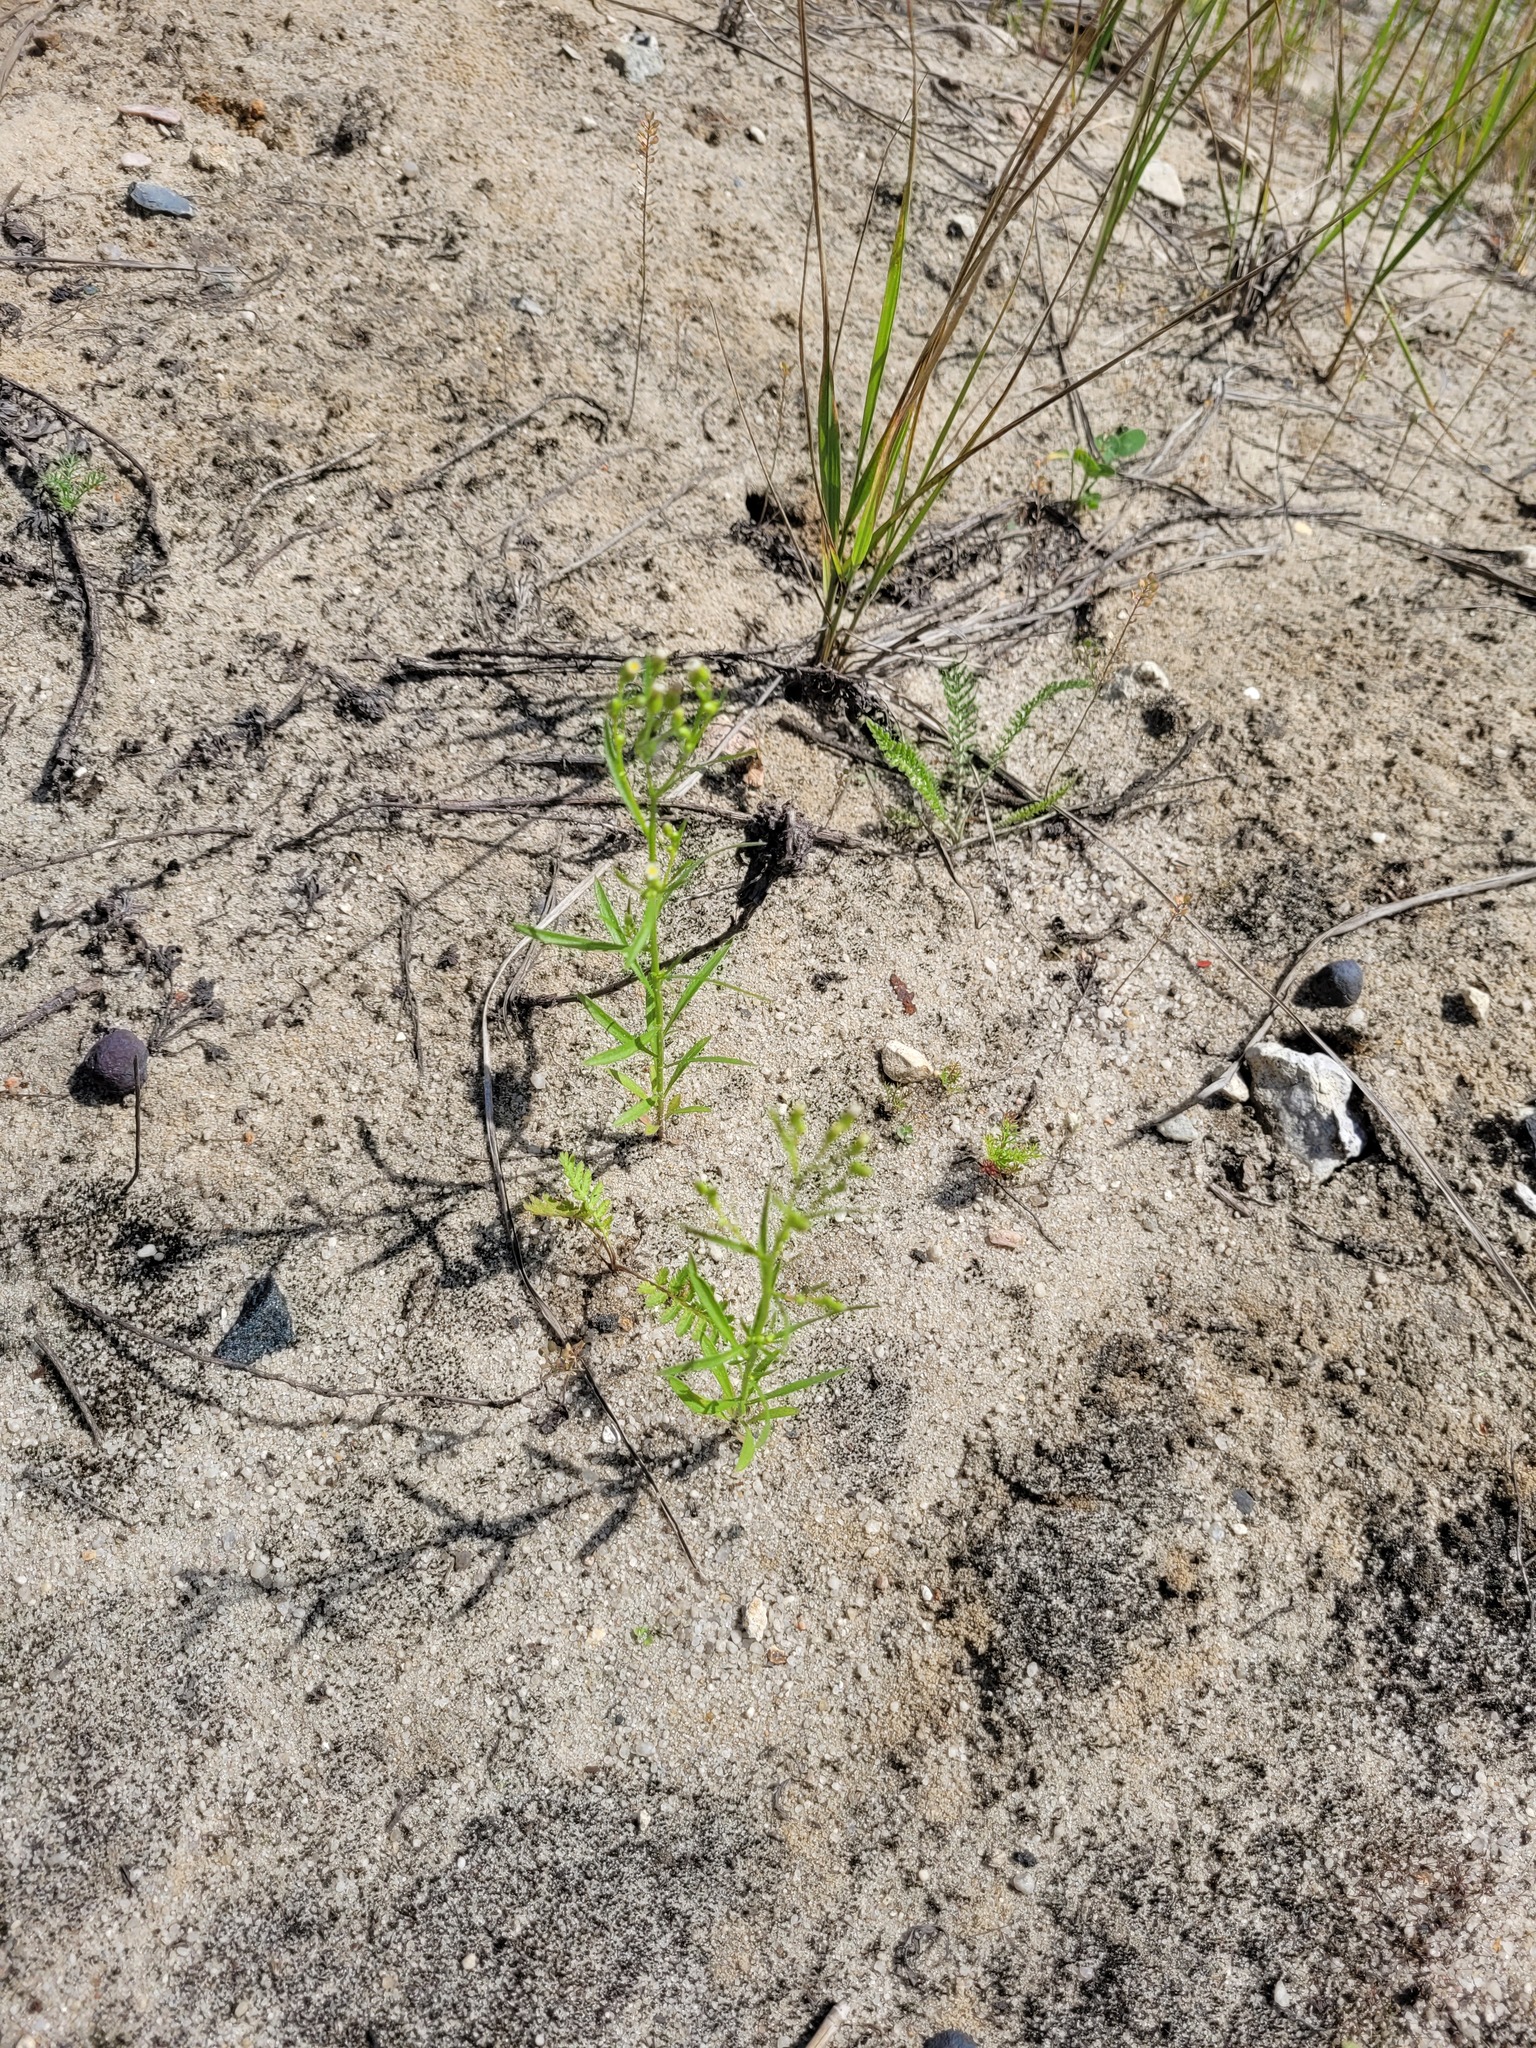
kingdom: Plantae
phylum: Tracheophyta
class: Magnoliopsida
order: Asterales
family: Asteraceae
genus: Erigeron
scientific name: Erigeron canadensis
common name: Canadian fleabane
